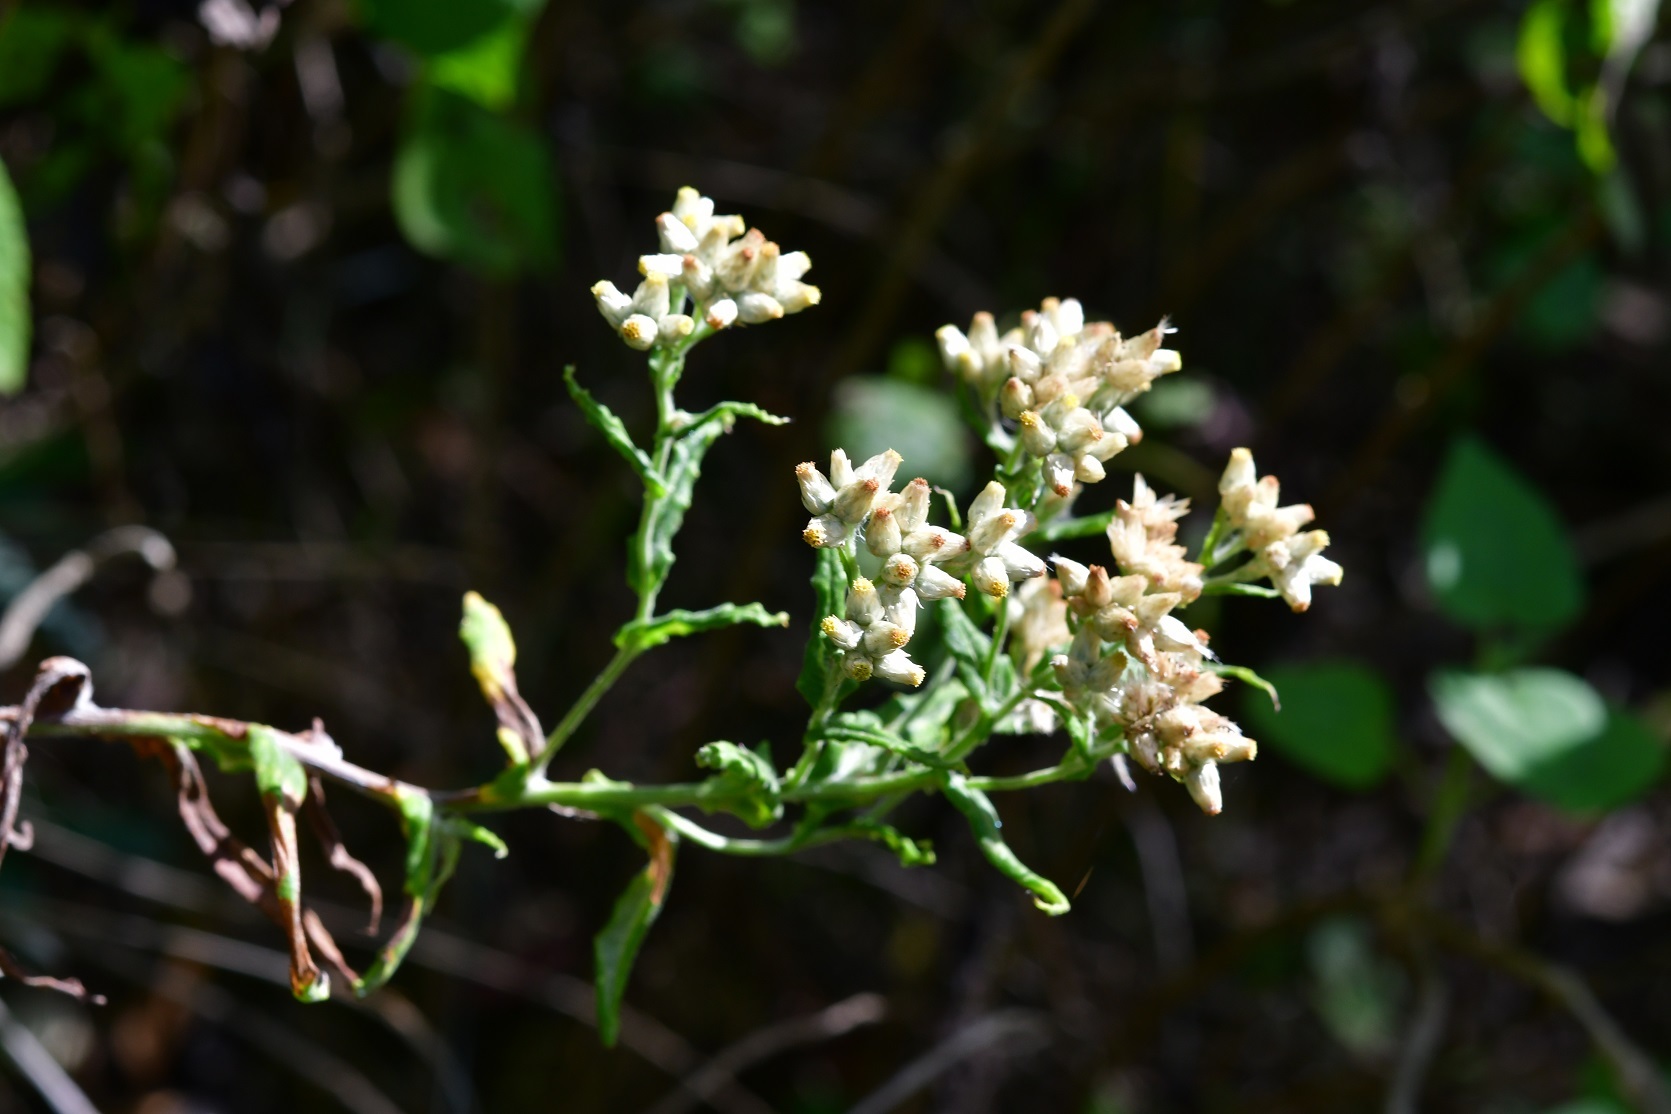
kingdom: Plantae
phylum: Tracheophyta
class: Magnoliopsida
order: Asterales
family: Asteraceae
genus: Pseudognaphalium
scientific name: Pseudognaphalium chartaceum
